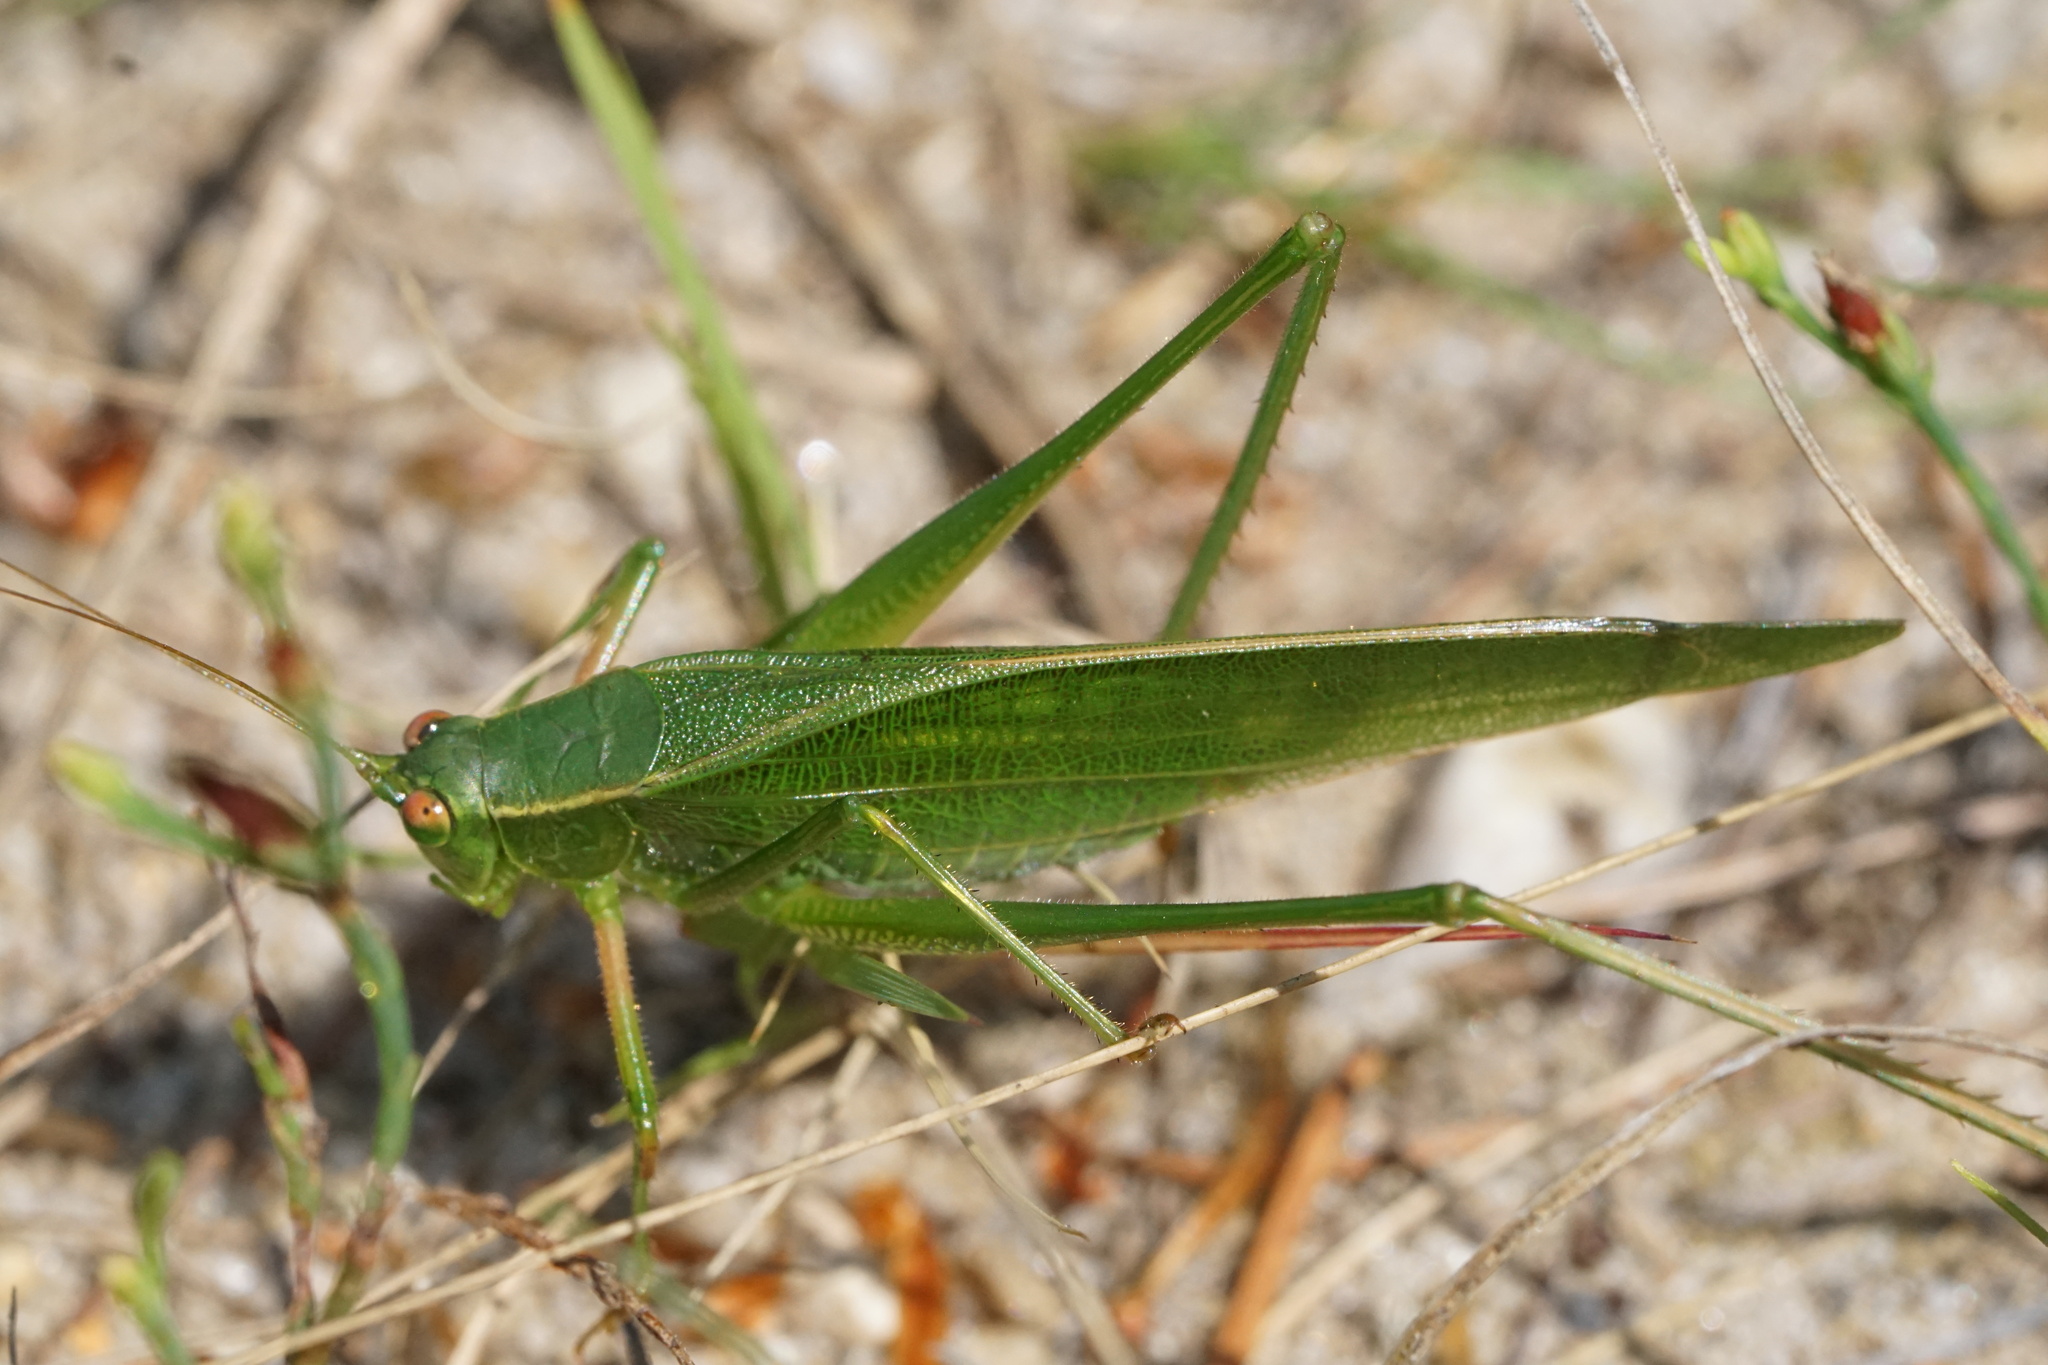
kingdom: Animalia
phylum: Arthropoda
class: Insecta
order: Orthoptera
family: Tettigoniidae
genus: Scudderia
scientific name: Scudderia furcata
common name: Fork-tailed bush katydid
